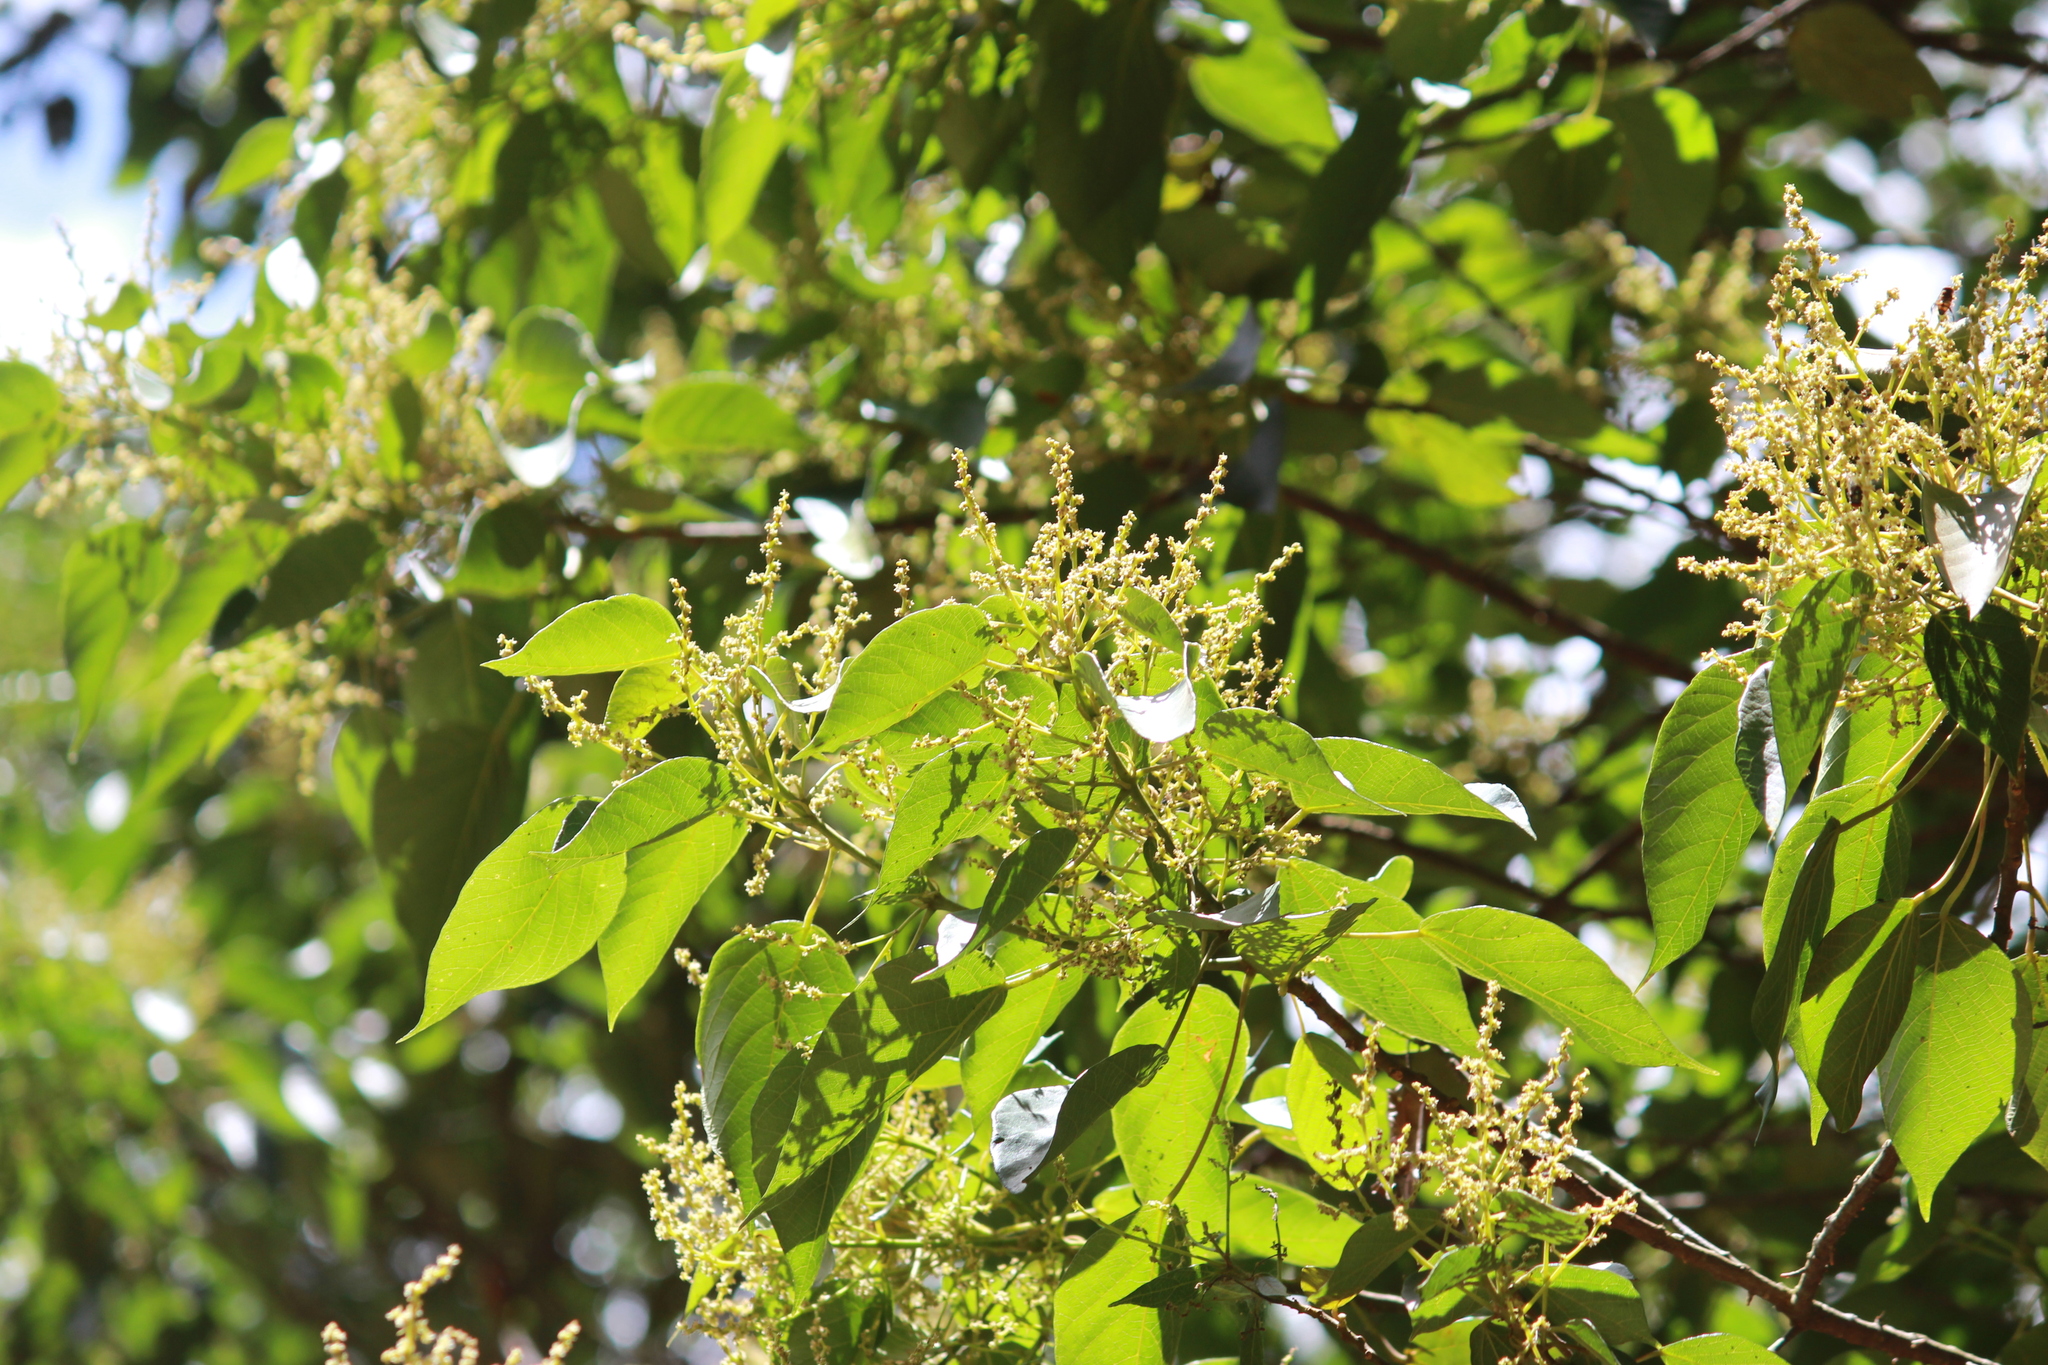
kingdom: Plantae
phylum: Tracheophyta
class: Magnoliopsida
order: Malpighiales
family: Euphorbiaceae
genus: Macaranga
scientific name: Macaranga capensis
